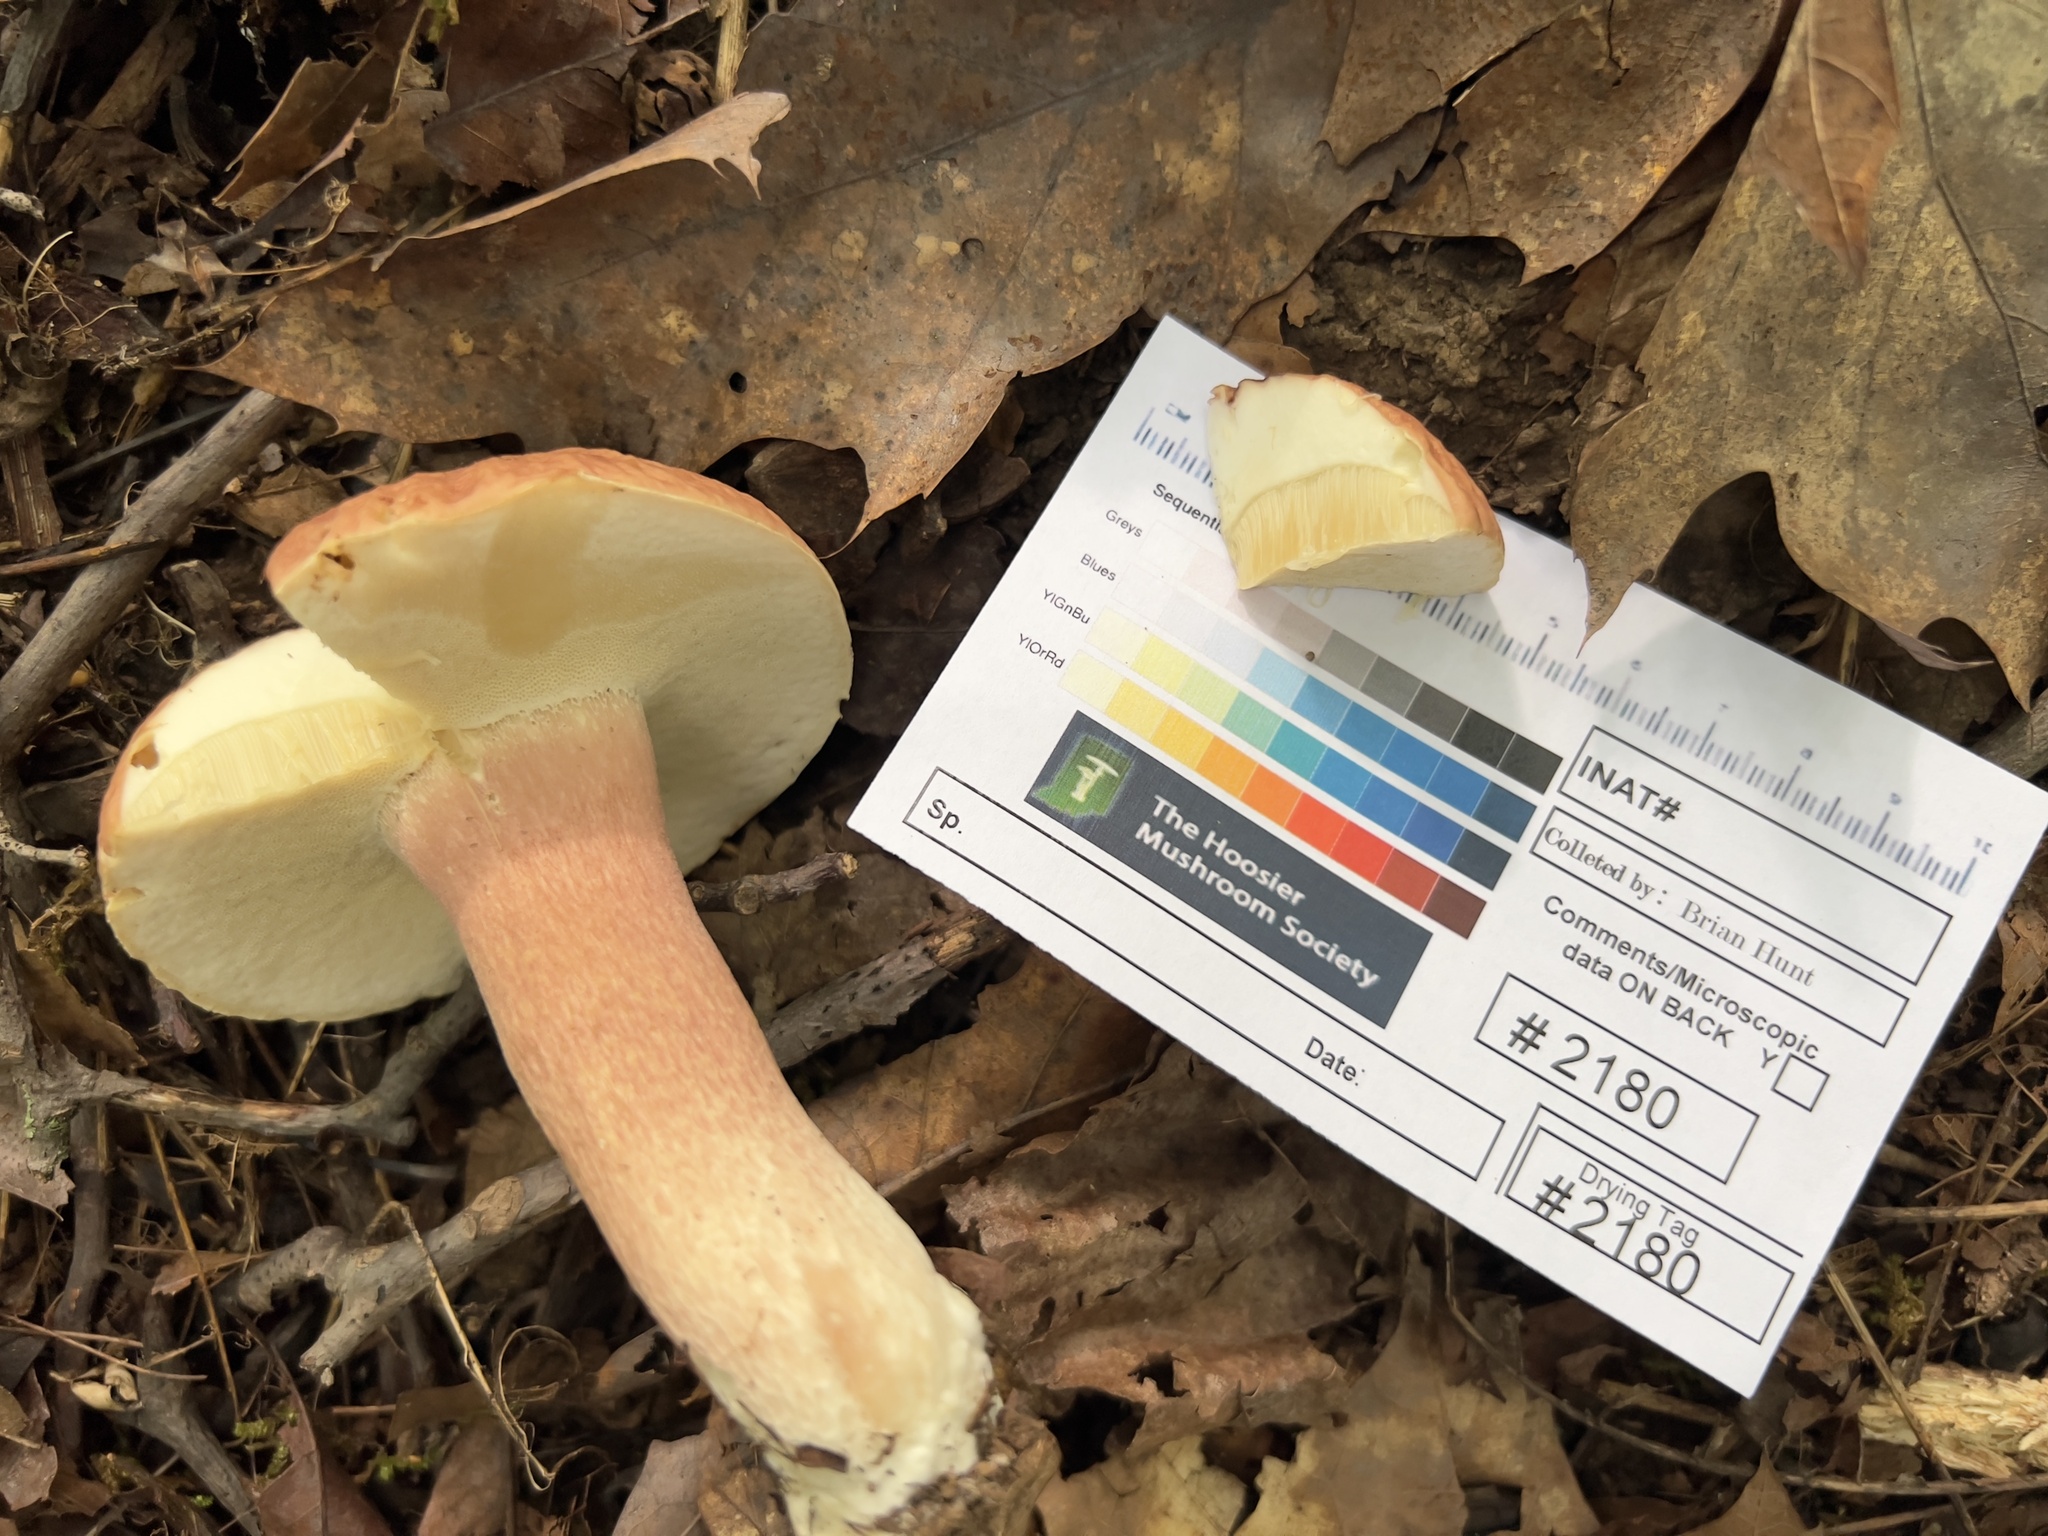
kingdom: Fungi
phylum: Basidiomycota
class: Agaricomycetes
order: Boletales
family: Boletaceae
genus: Xanthoconium
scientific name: Xanthoconium separans
